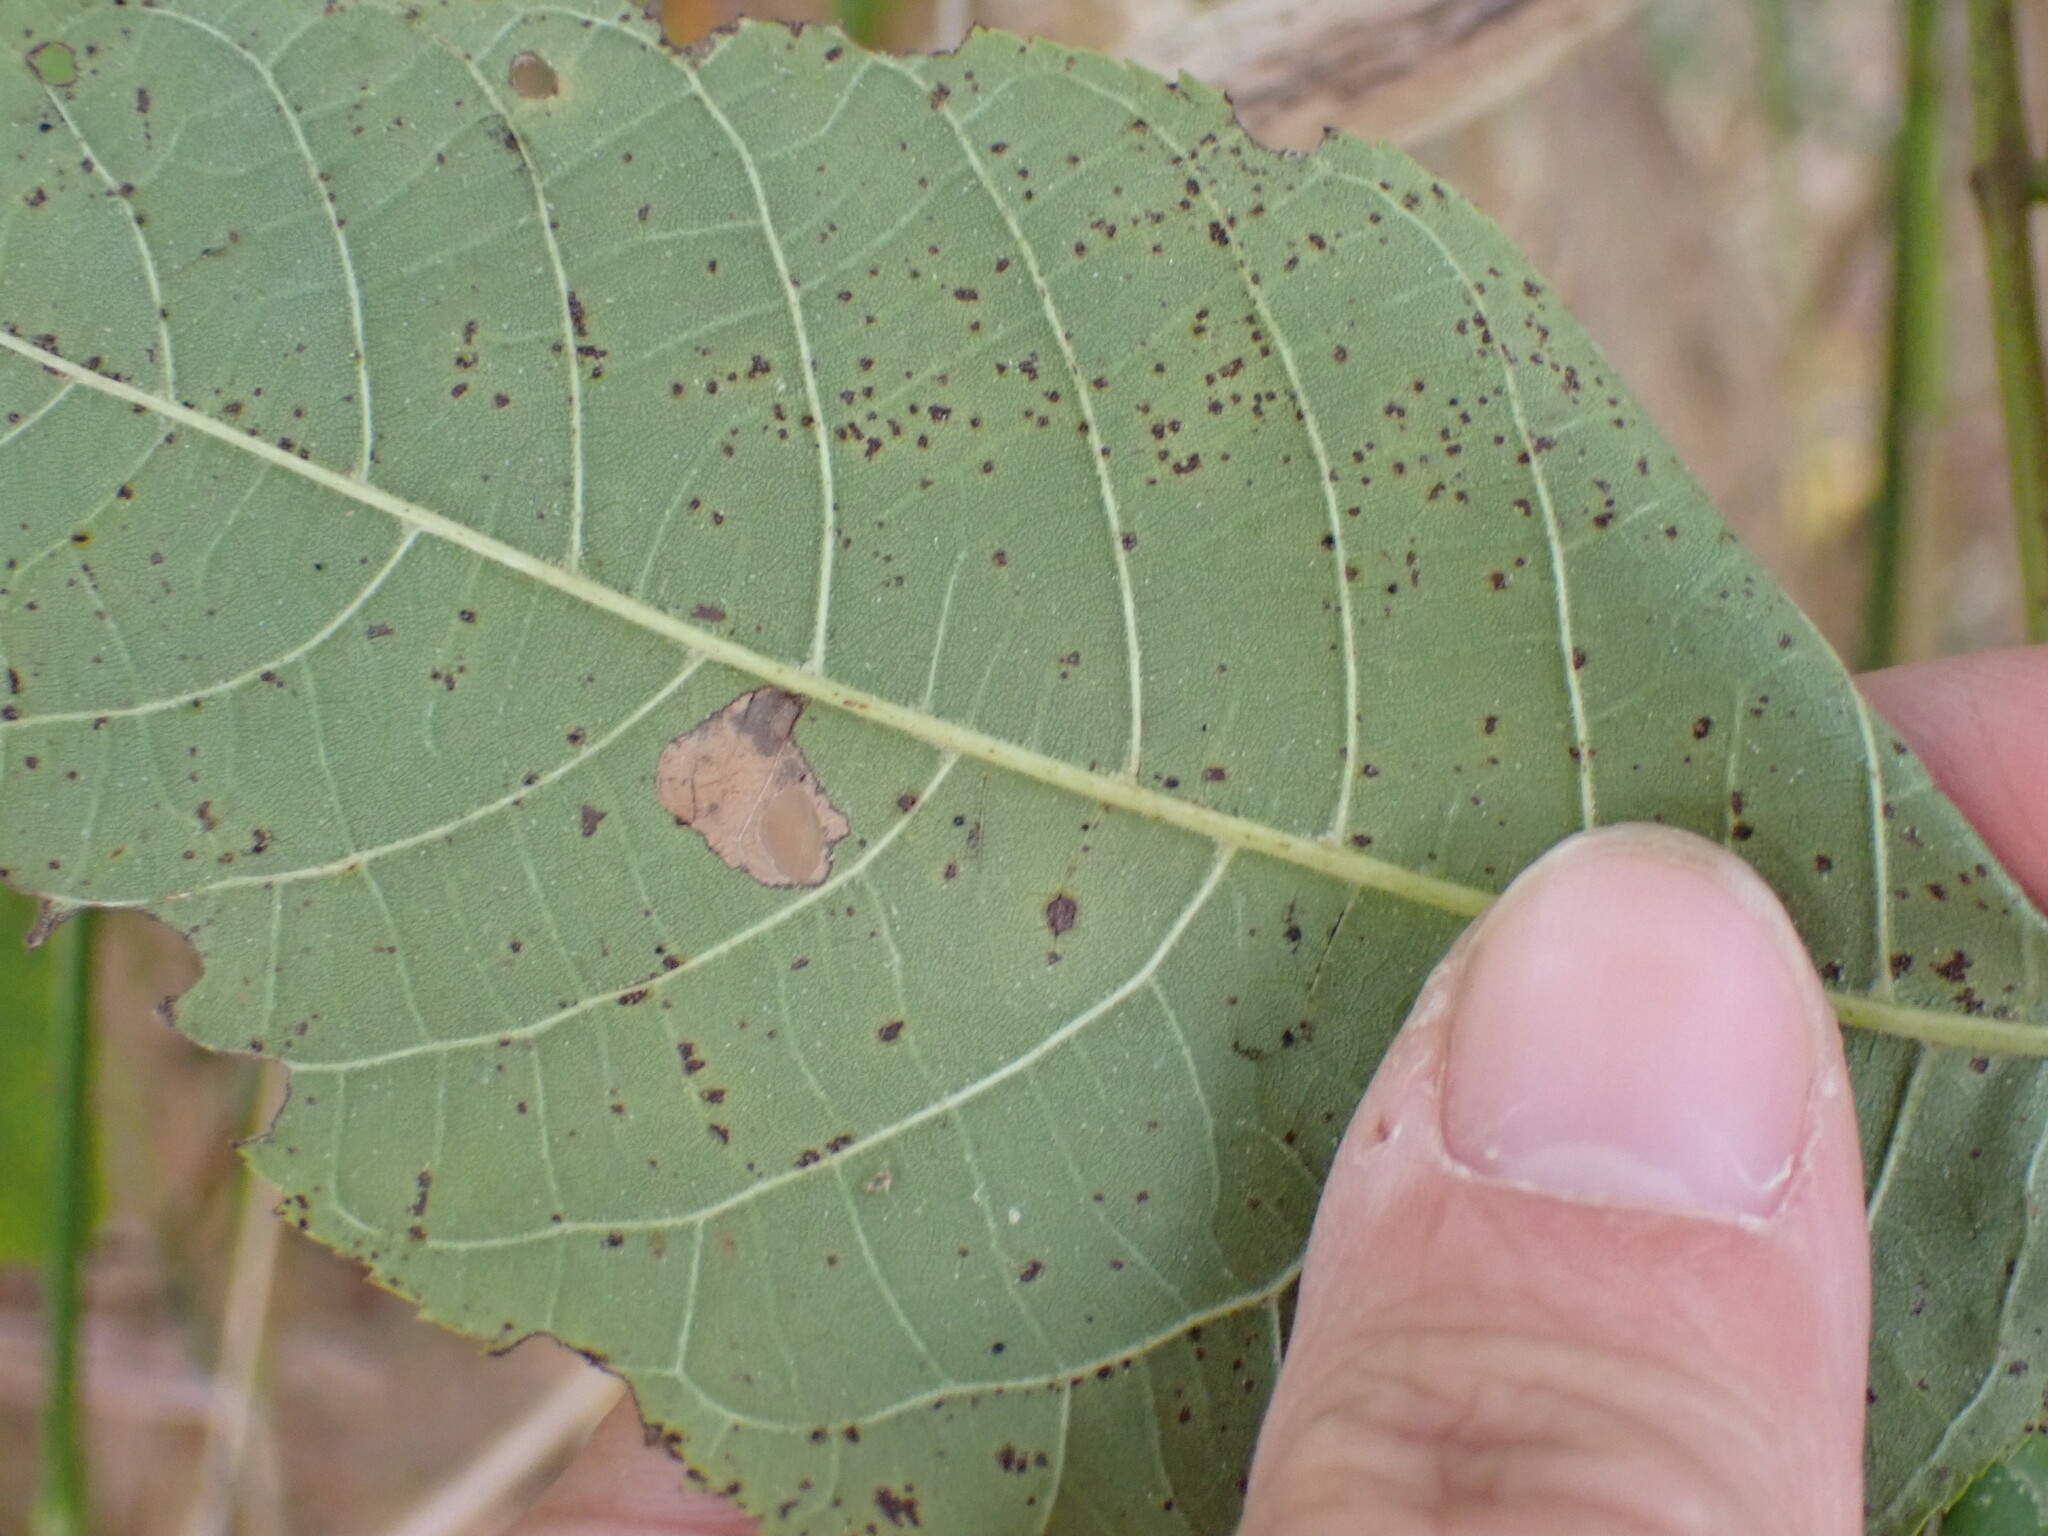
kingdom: Animalia
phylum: Arthropoda
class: Insecta
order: Lepidoptera
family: Heliozelidae
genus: Coptodisca
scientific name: Coptodisca juglandiella
